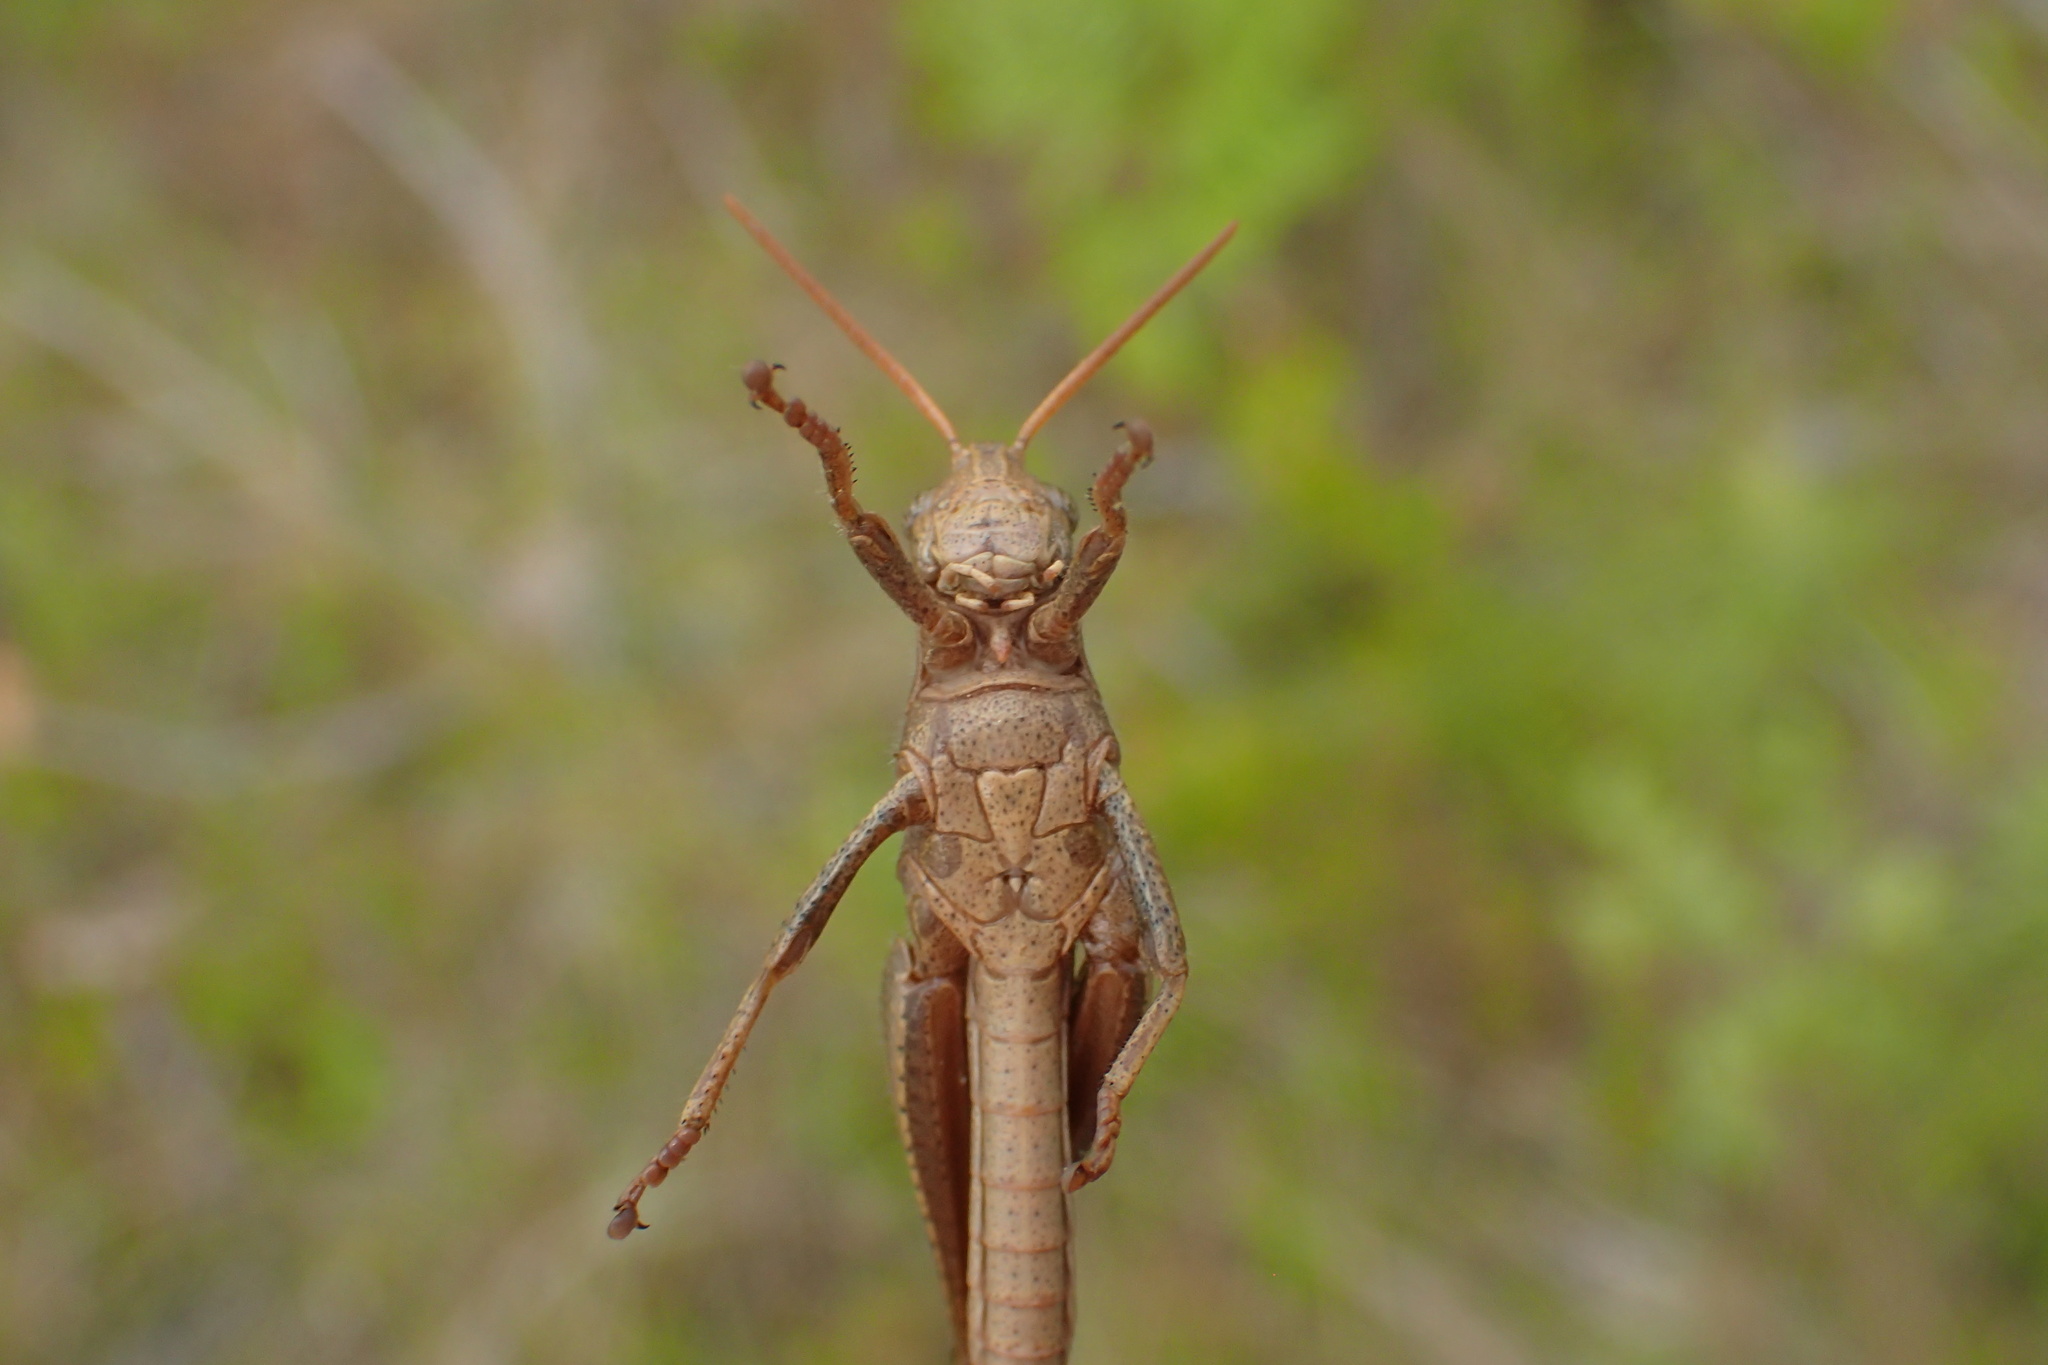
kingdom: Animalia
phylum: Arthropoda
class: Insecta
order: Orthoptera
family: Acrididae
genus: Schistocerca
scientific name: Schistocerca damnifica
